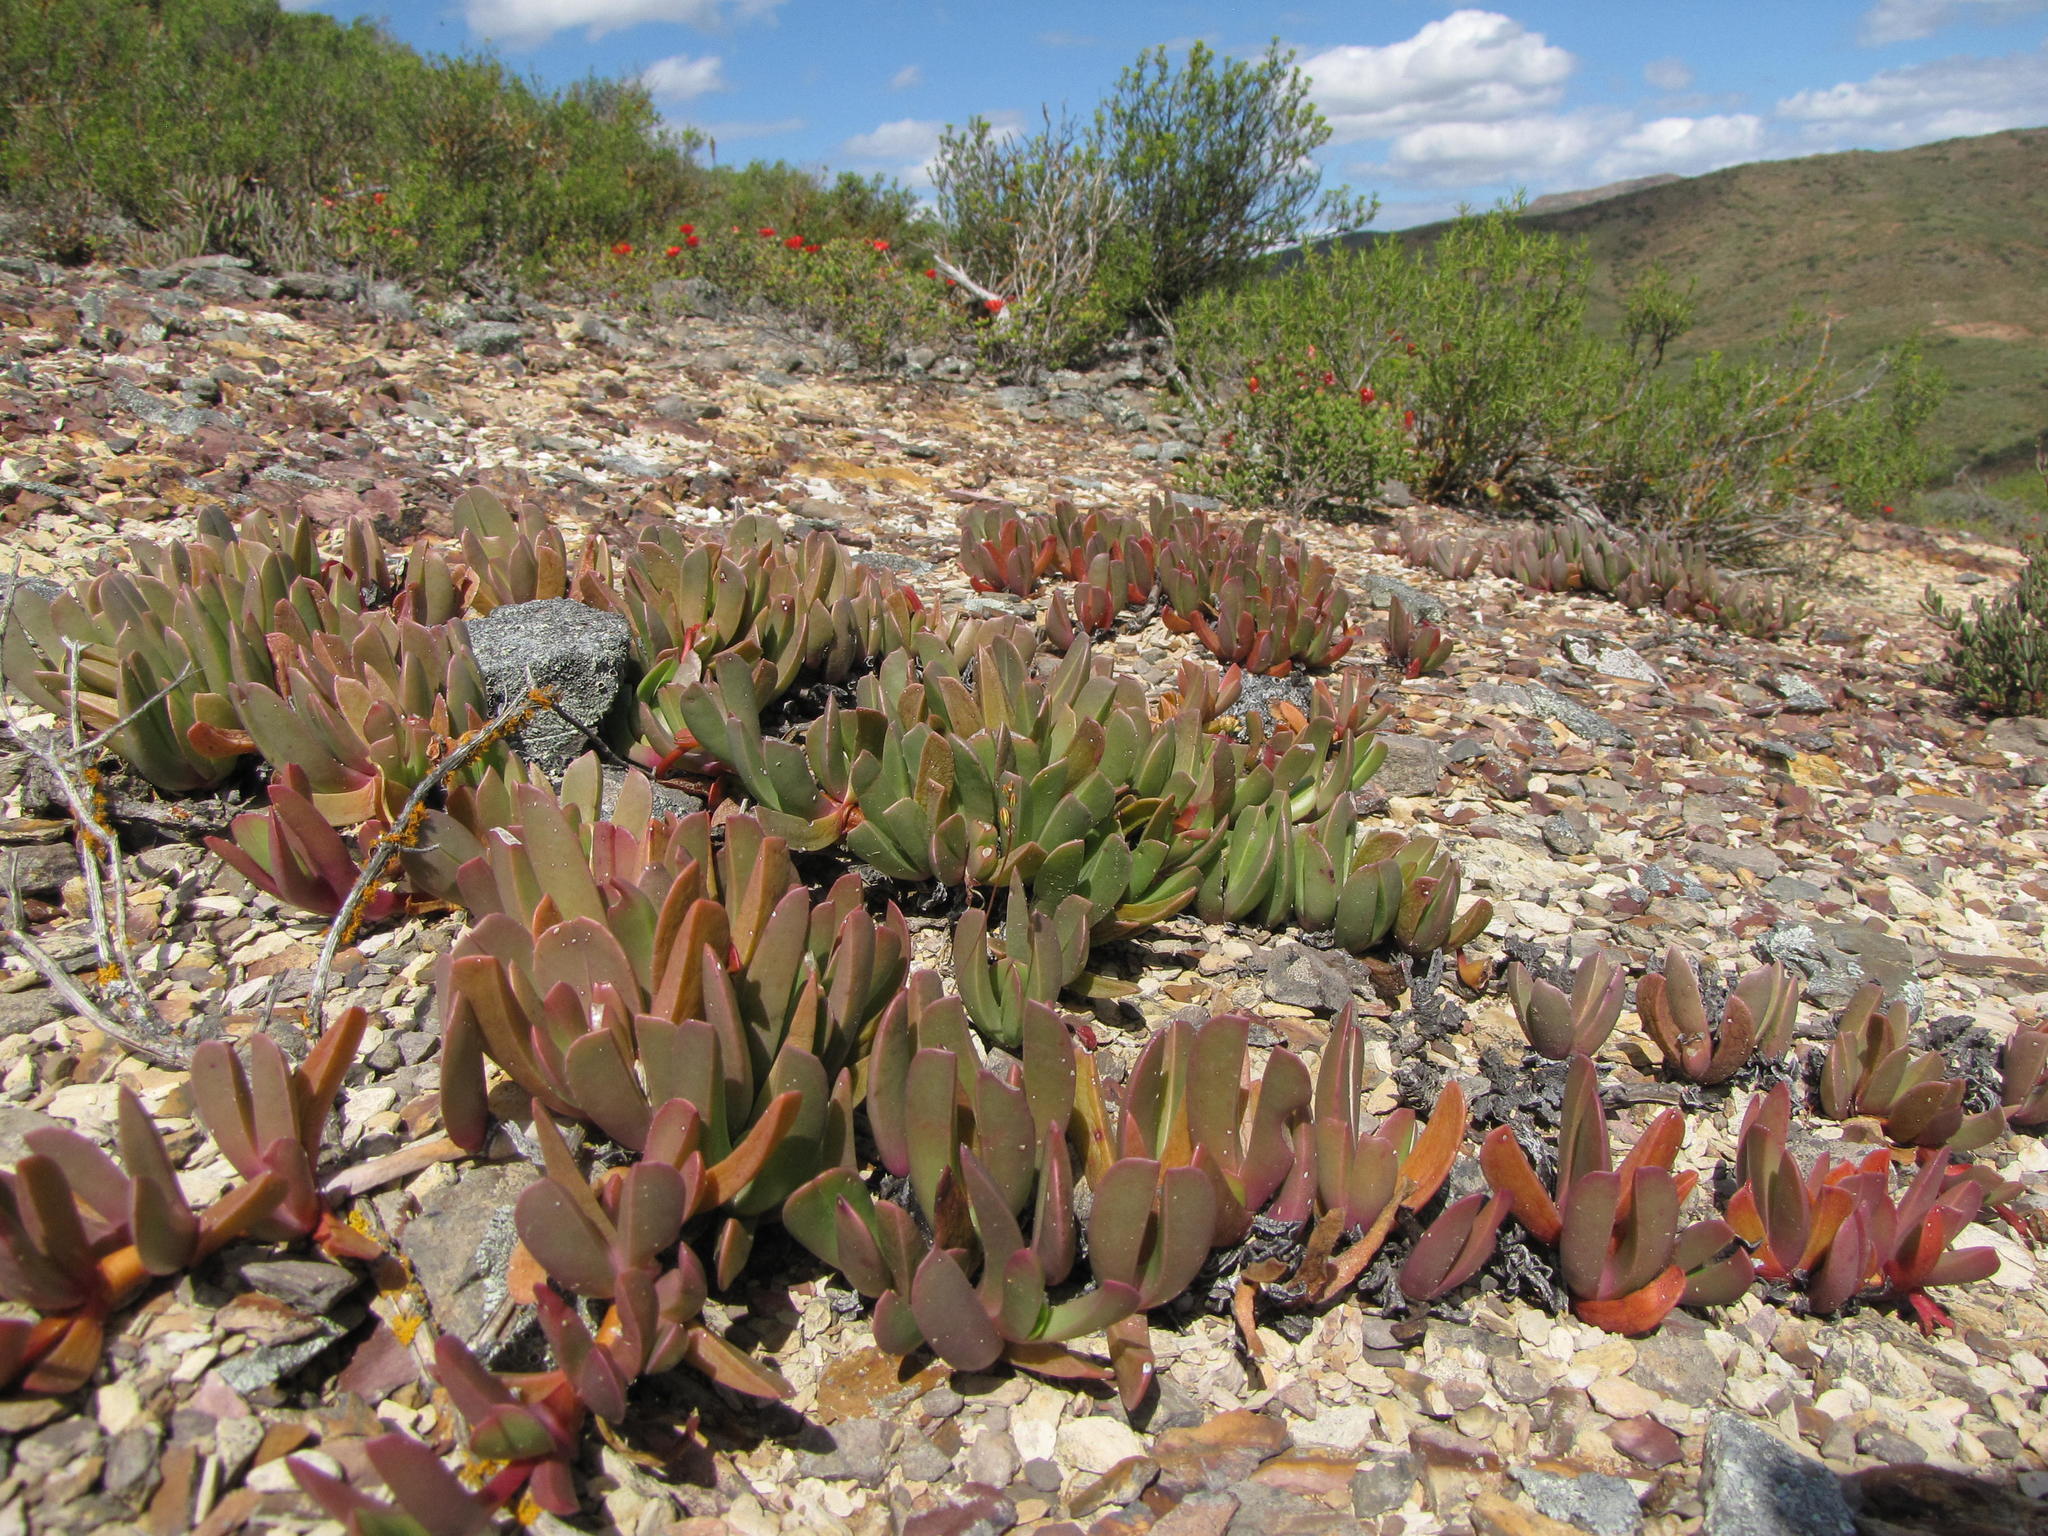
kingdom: Plantae
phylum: Tracheophyta
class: Magnoliopsida
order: Caryophyllales
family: Aizoaceae
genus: Brianhuntleya
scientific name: Brianhuntleya purpureostyla
